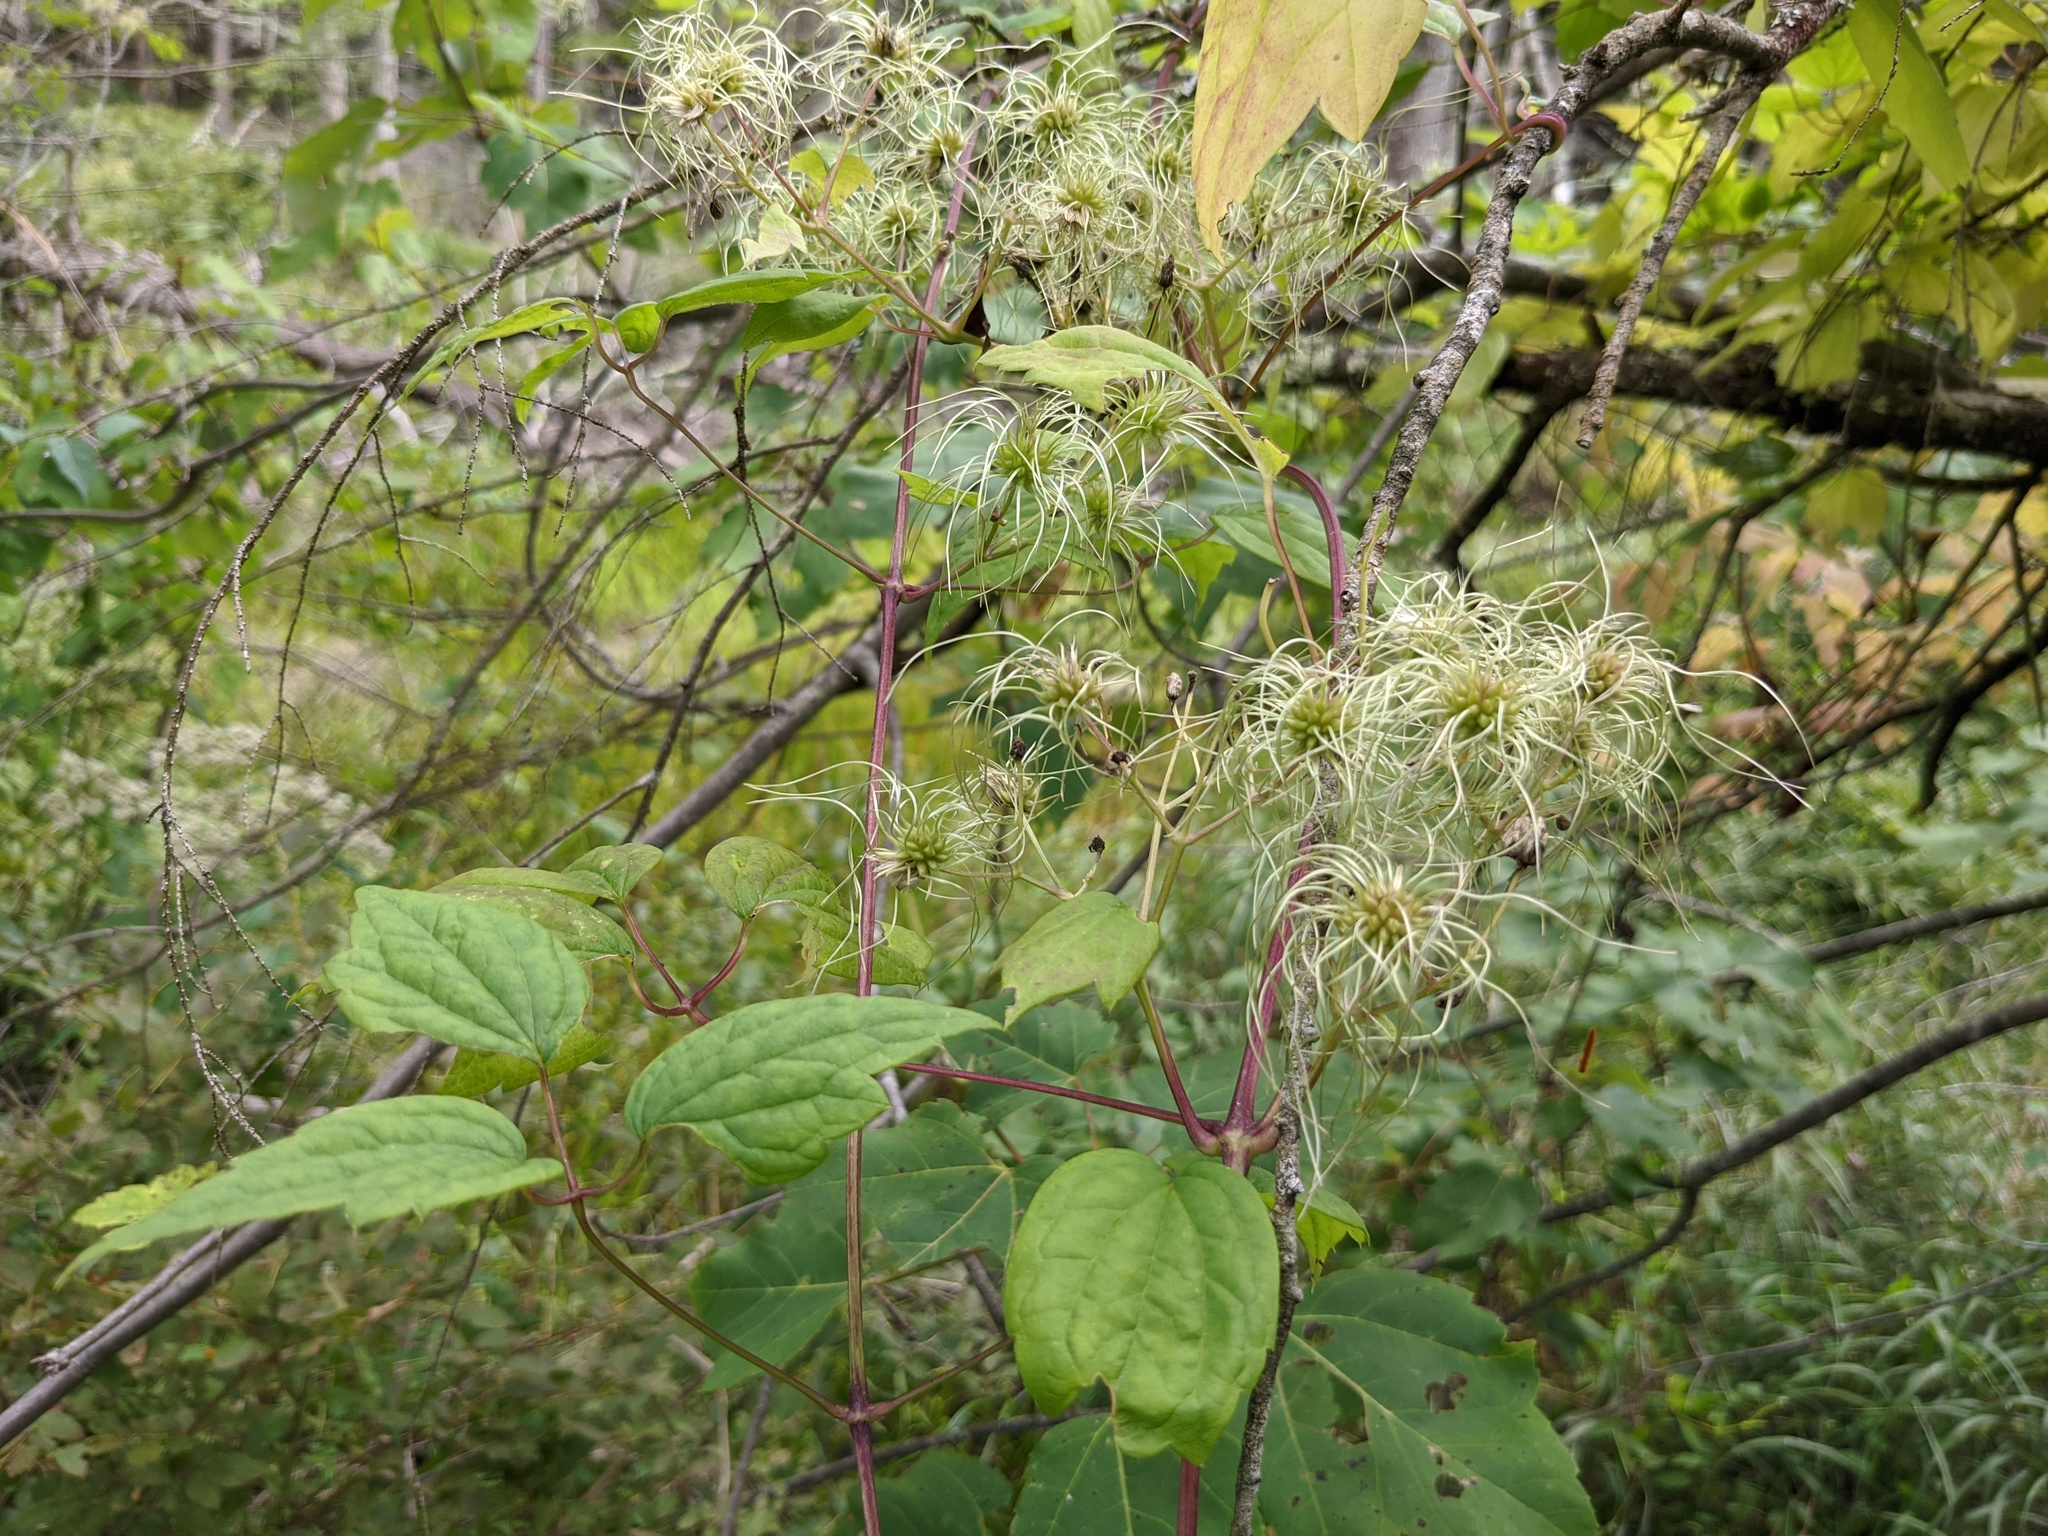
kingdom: Plantae
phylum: Tracheophyta
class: Magnoliopsida
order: Ranunculales
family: Ranunculaceae
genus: Clematis
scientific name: Clematis virginiana
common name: Virgin's-bower
